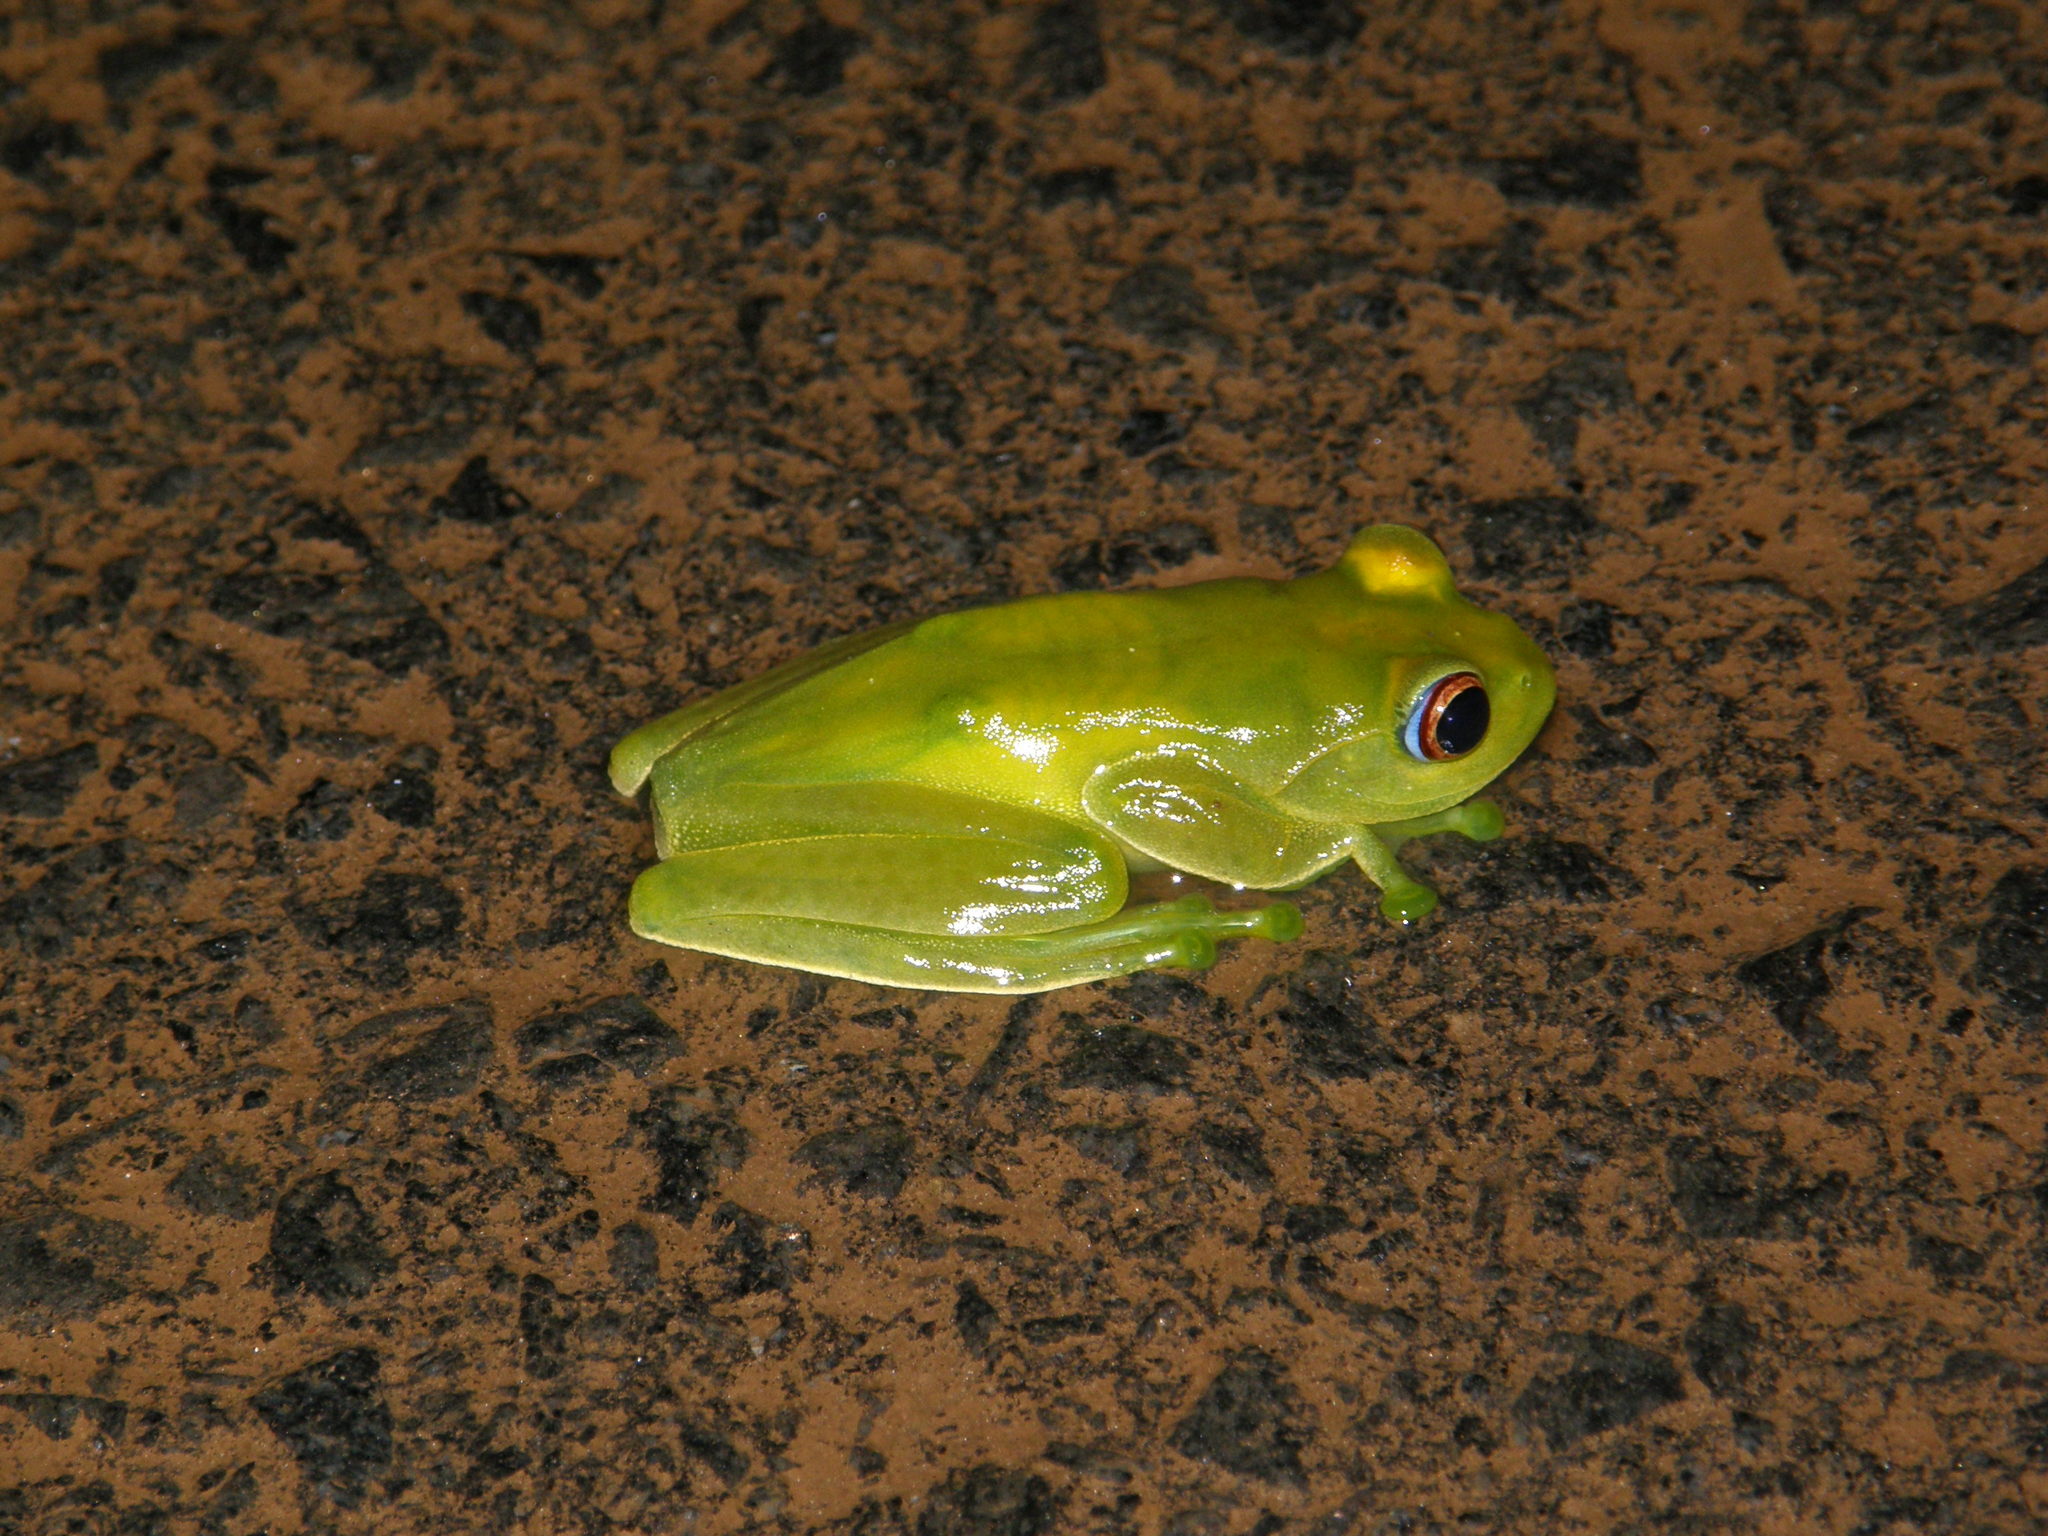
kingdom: Animalia
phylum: Chordata
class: Amphibia
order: Anura
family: Mantellidae
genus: Boophis
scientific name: Boophis luteus
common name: Ankafana bright-eyed frog
